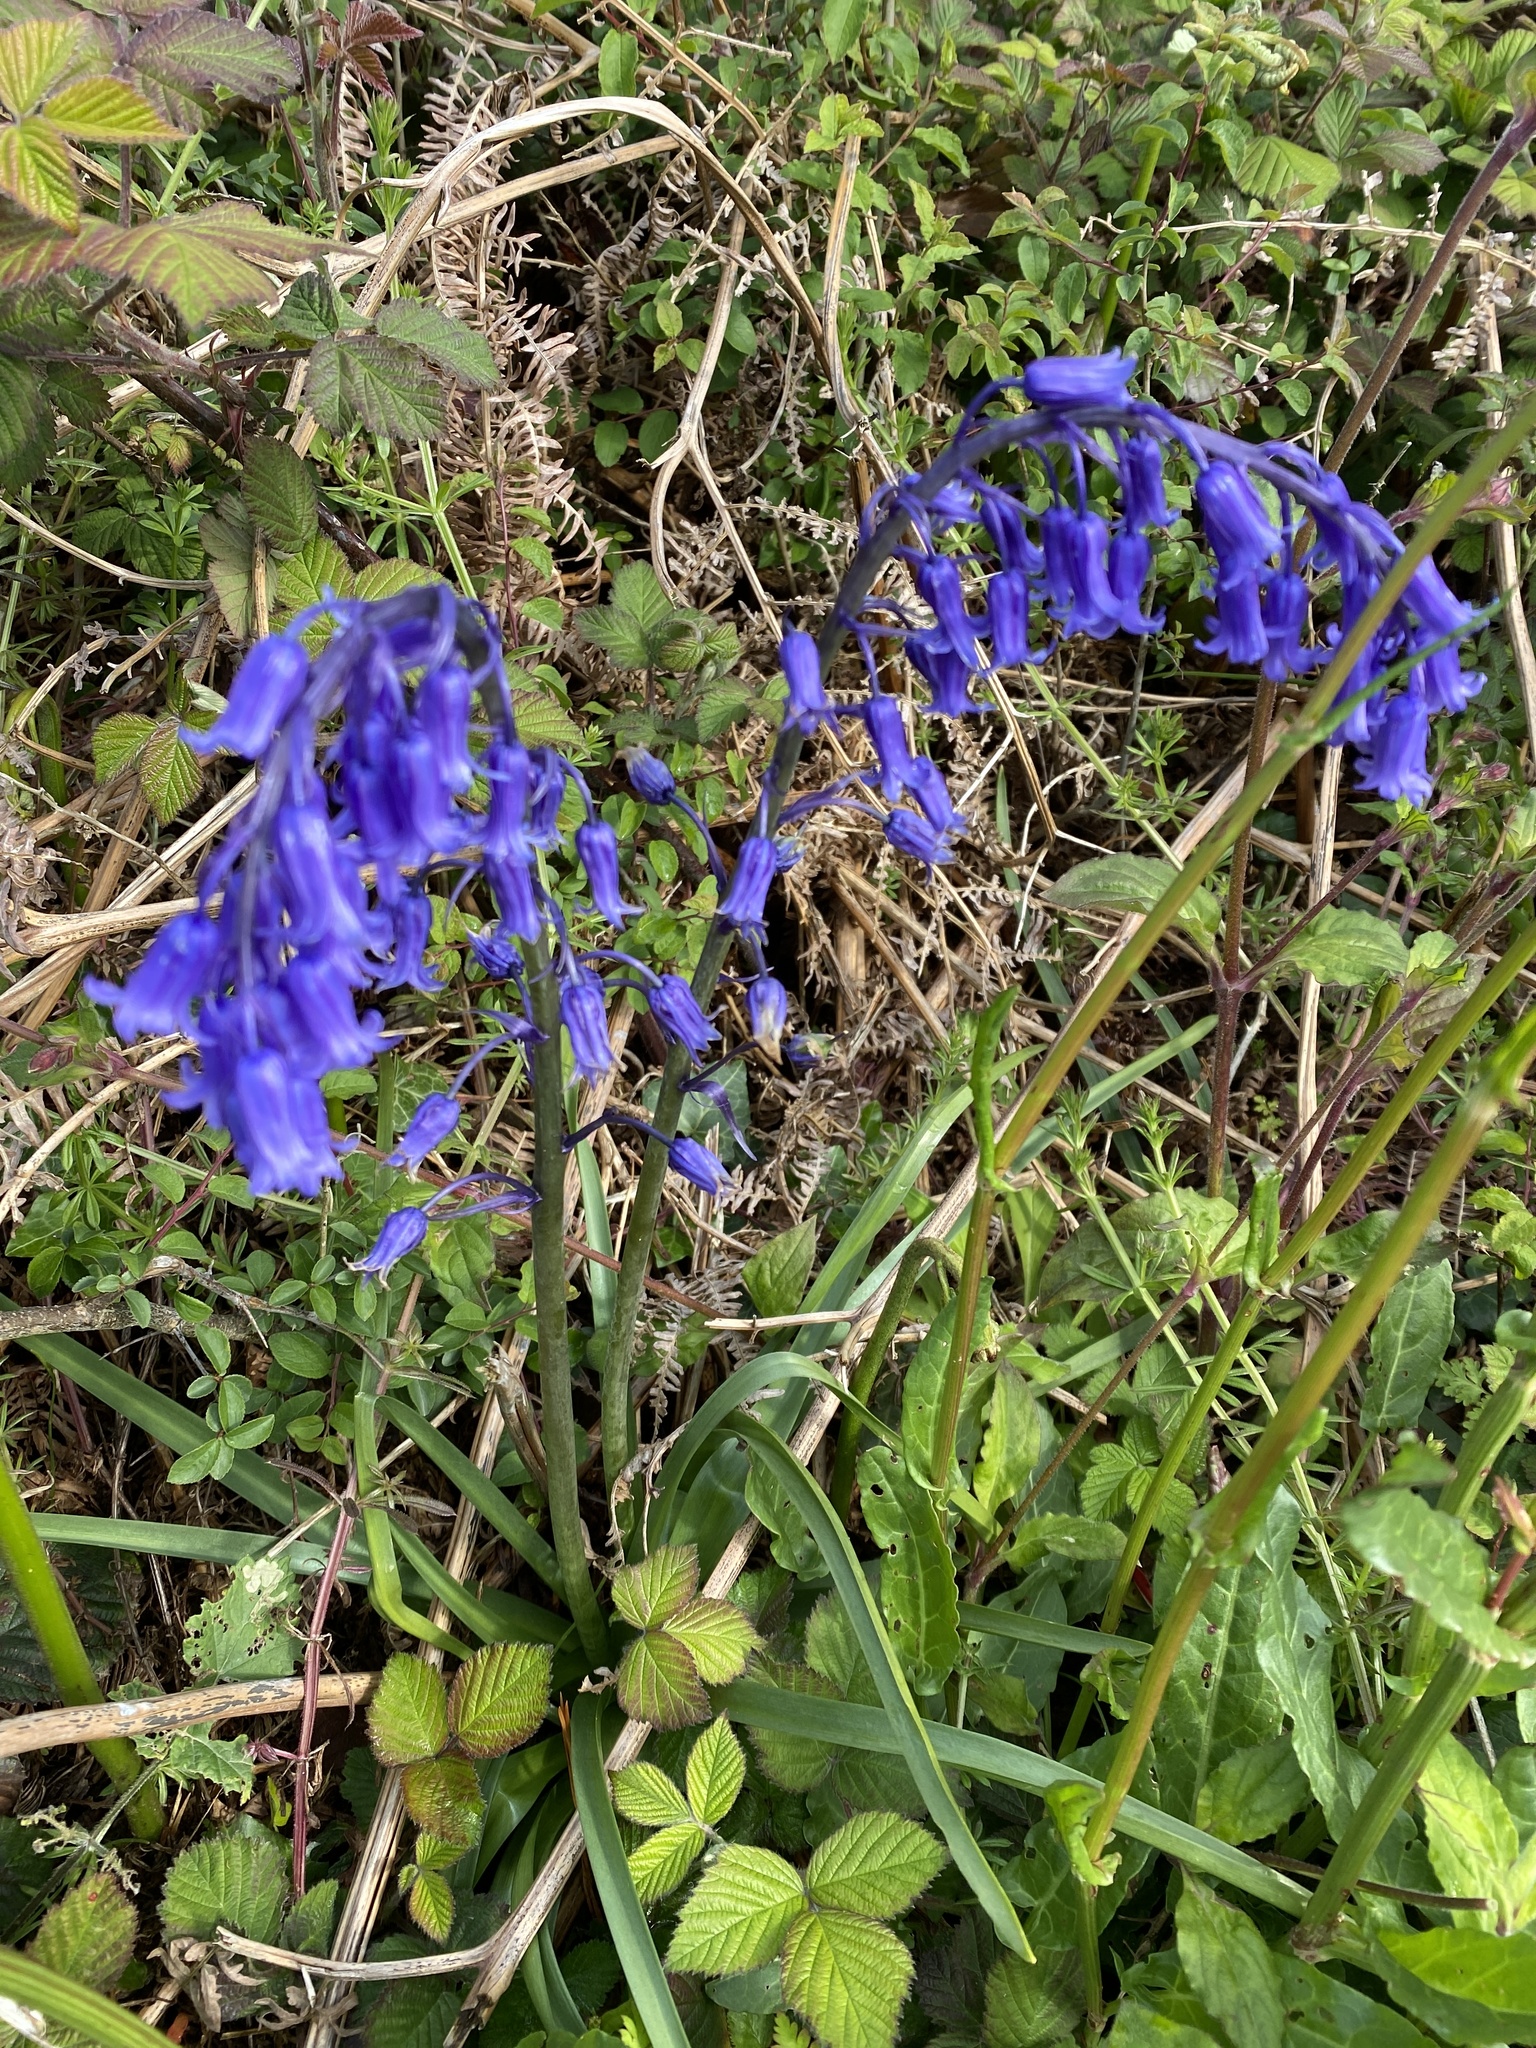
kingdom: Plantae
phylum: Tracheophyta
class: Liliopsida
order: Asparagales
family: Asparagaceae
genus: Hyacinthoides
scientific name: Hyacinthoides non-scripta
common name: Bluebell
